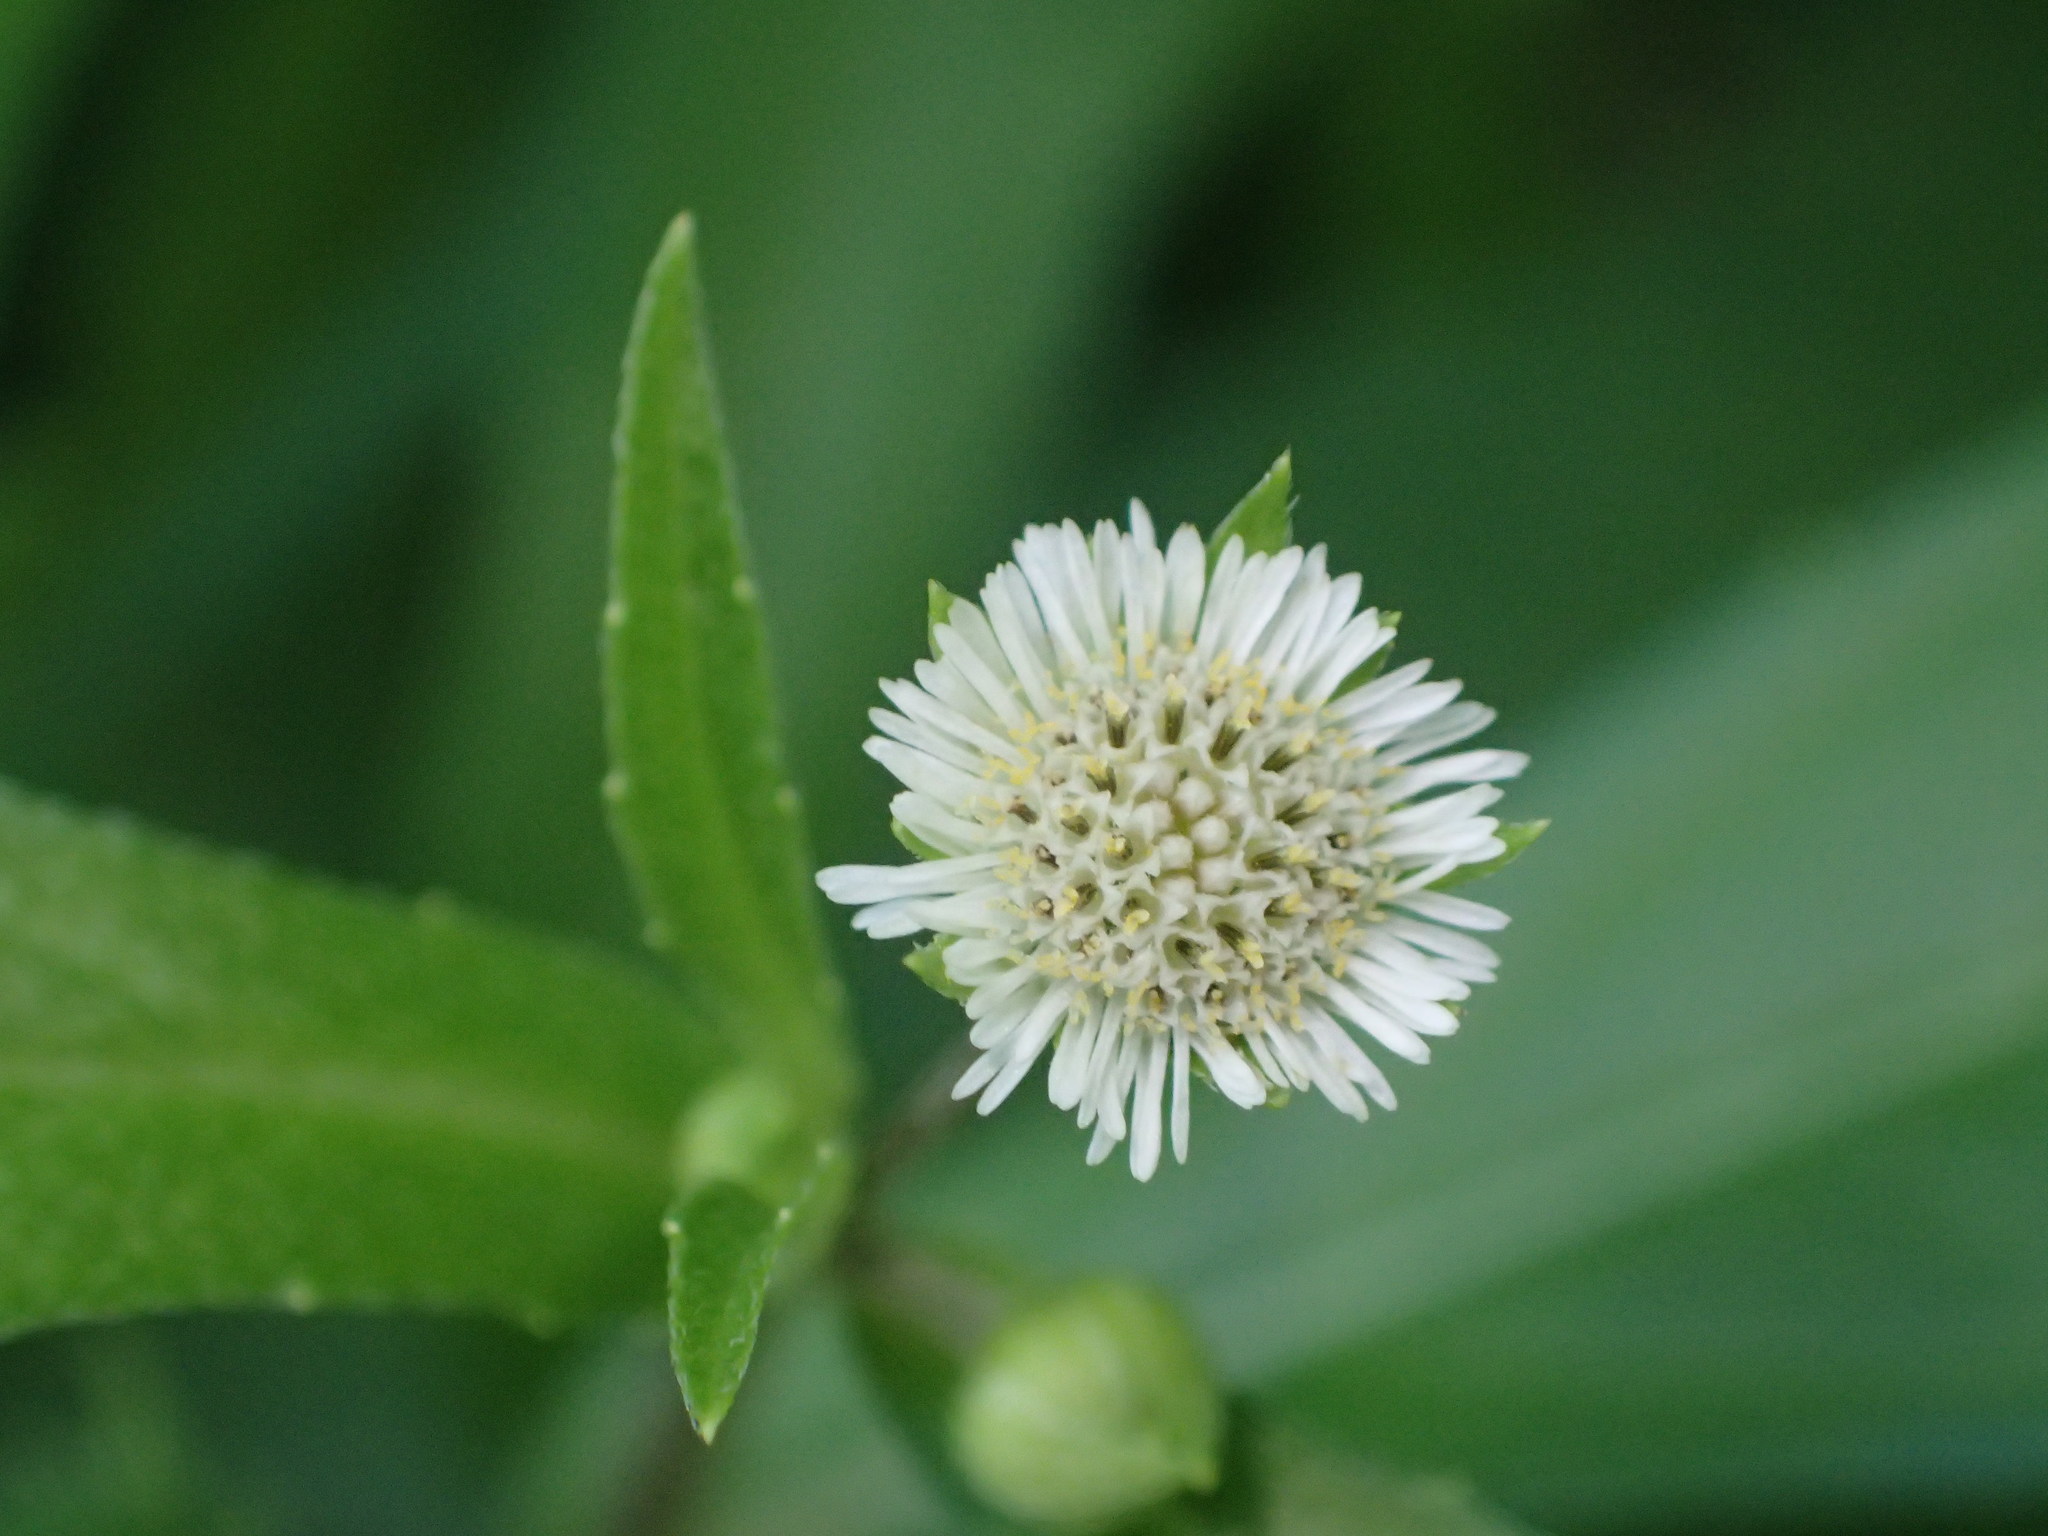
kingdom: Plantae
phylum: Tracheophyta
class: Magnoliopsida
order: Asterales
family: Asteraceae
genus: Eclipta
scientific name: Eclipta prostrata
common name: False daisy
